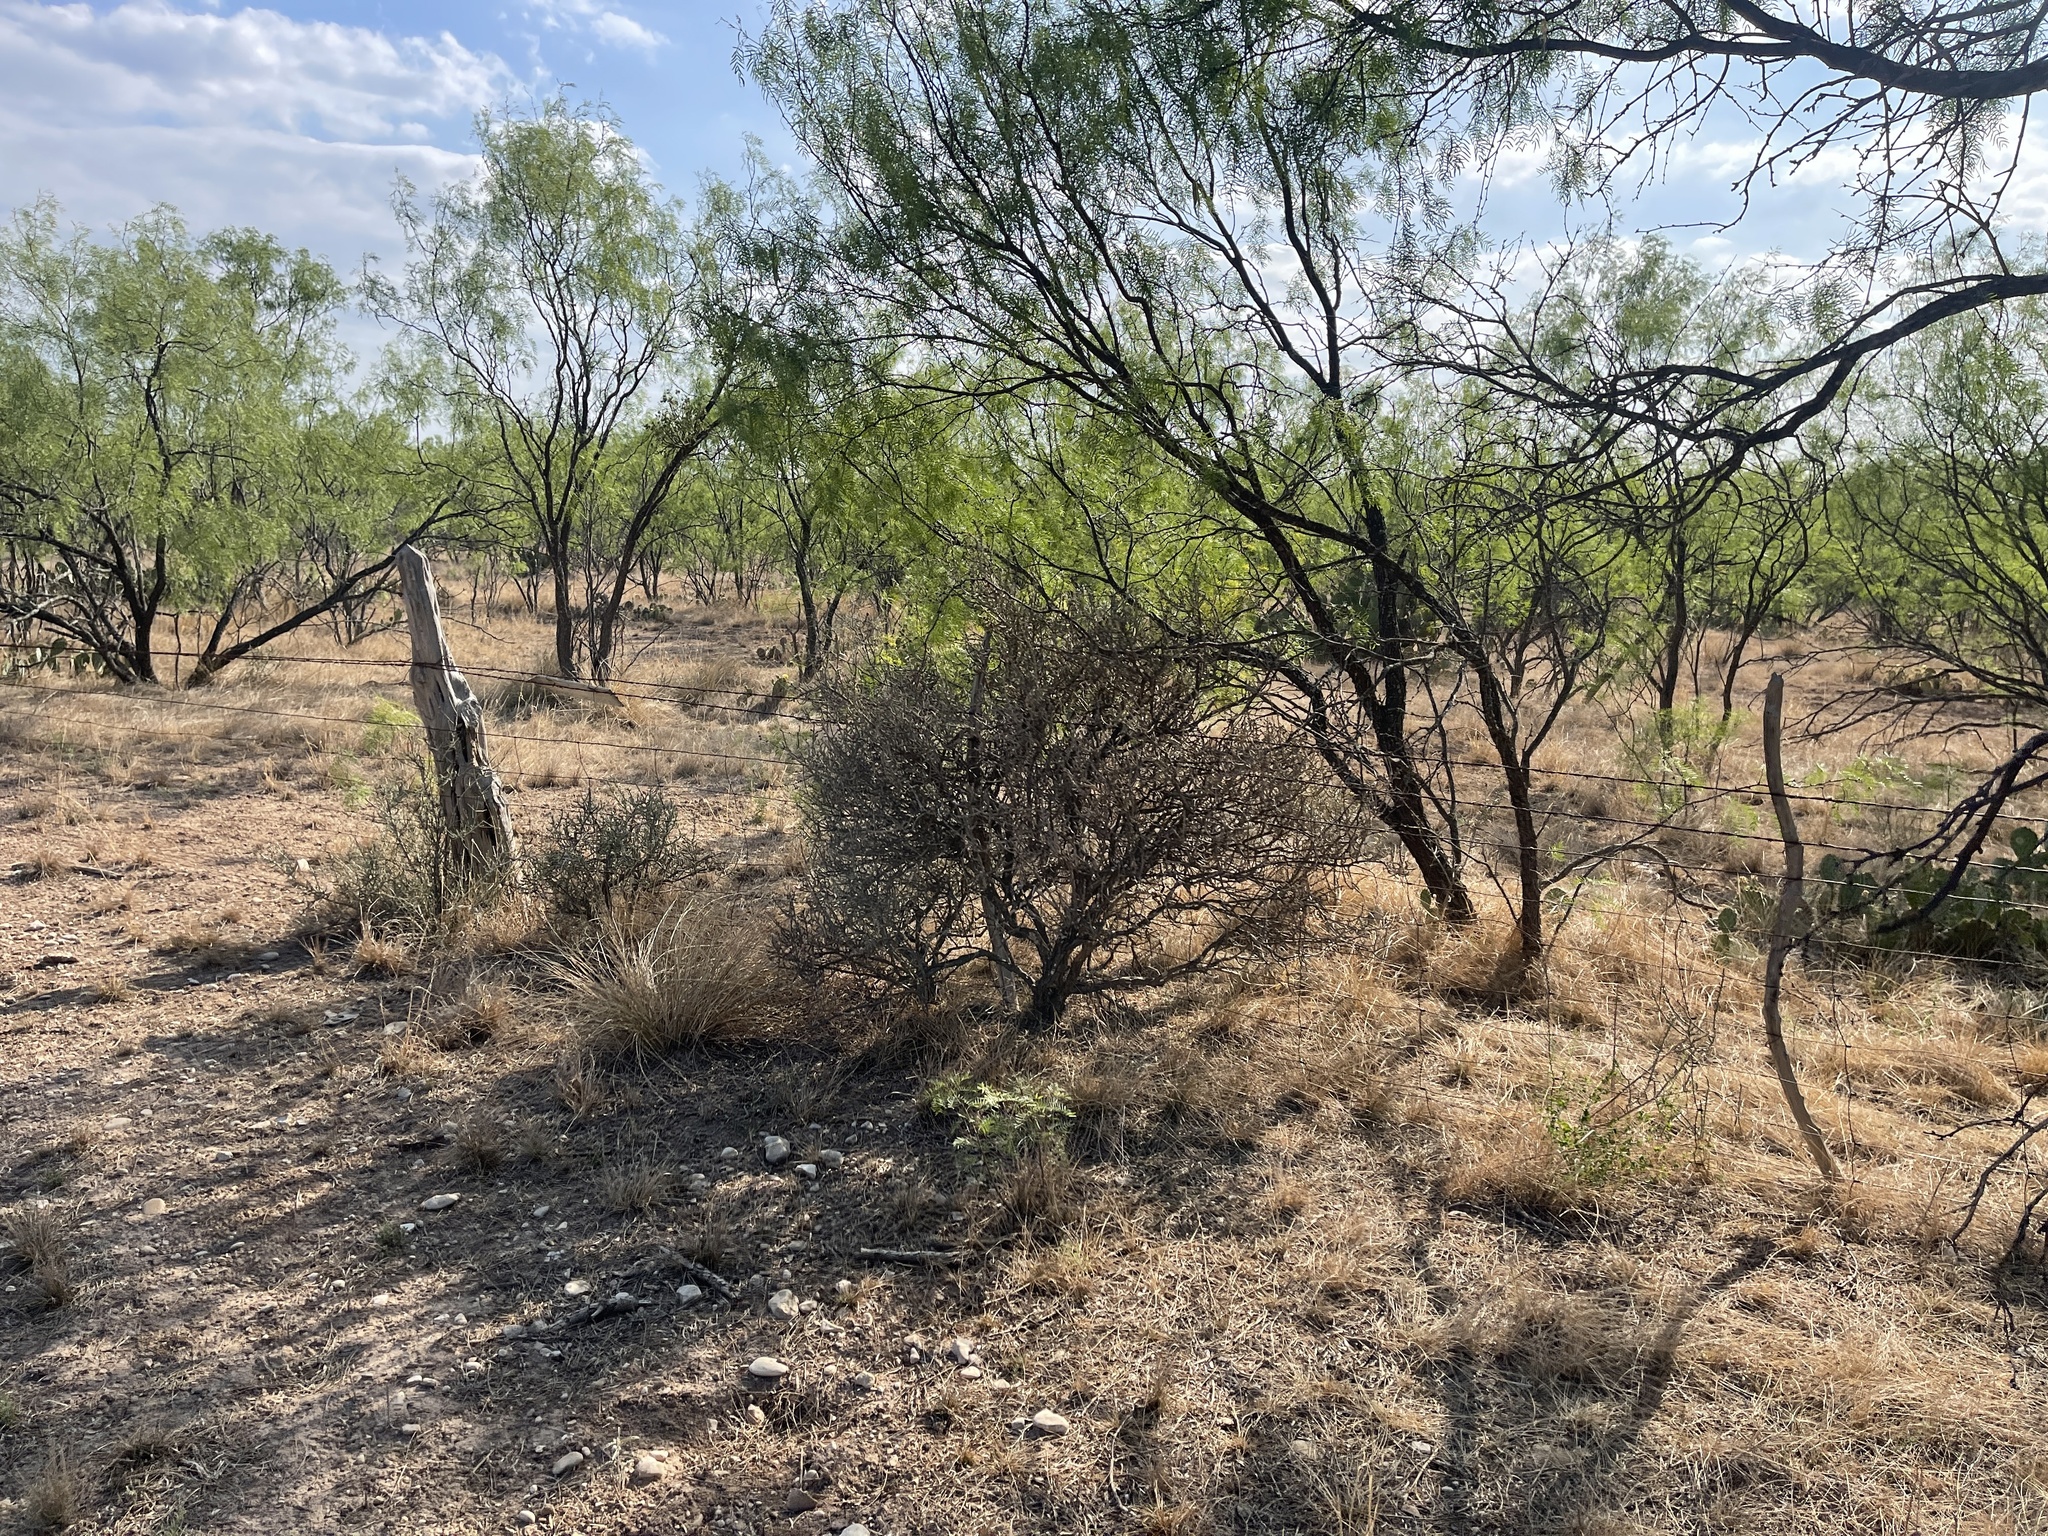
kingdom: Plantae
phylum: Tracheophyta
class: Magnoliopsida
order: Caryophyllales
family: Cactaceae
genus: Cylindropuntia
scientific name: Cylindropuntia leptocaulis
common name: Christmas cactus
